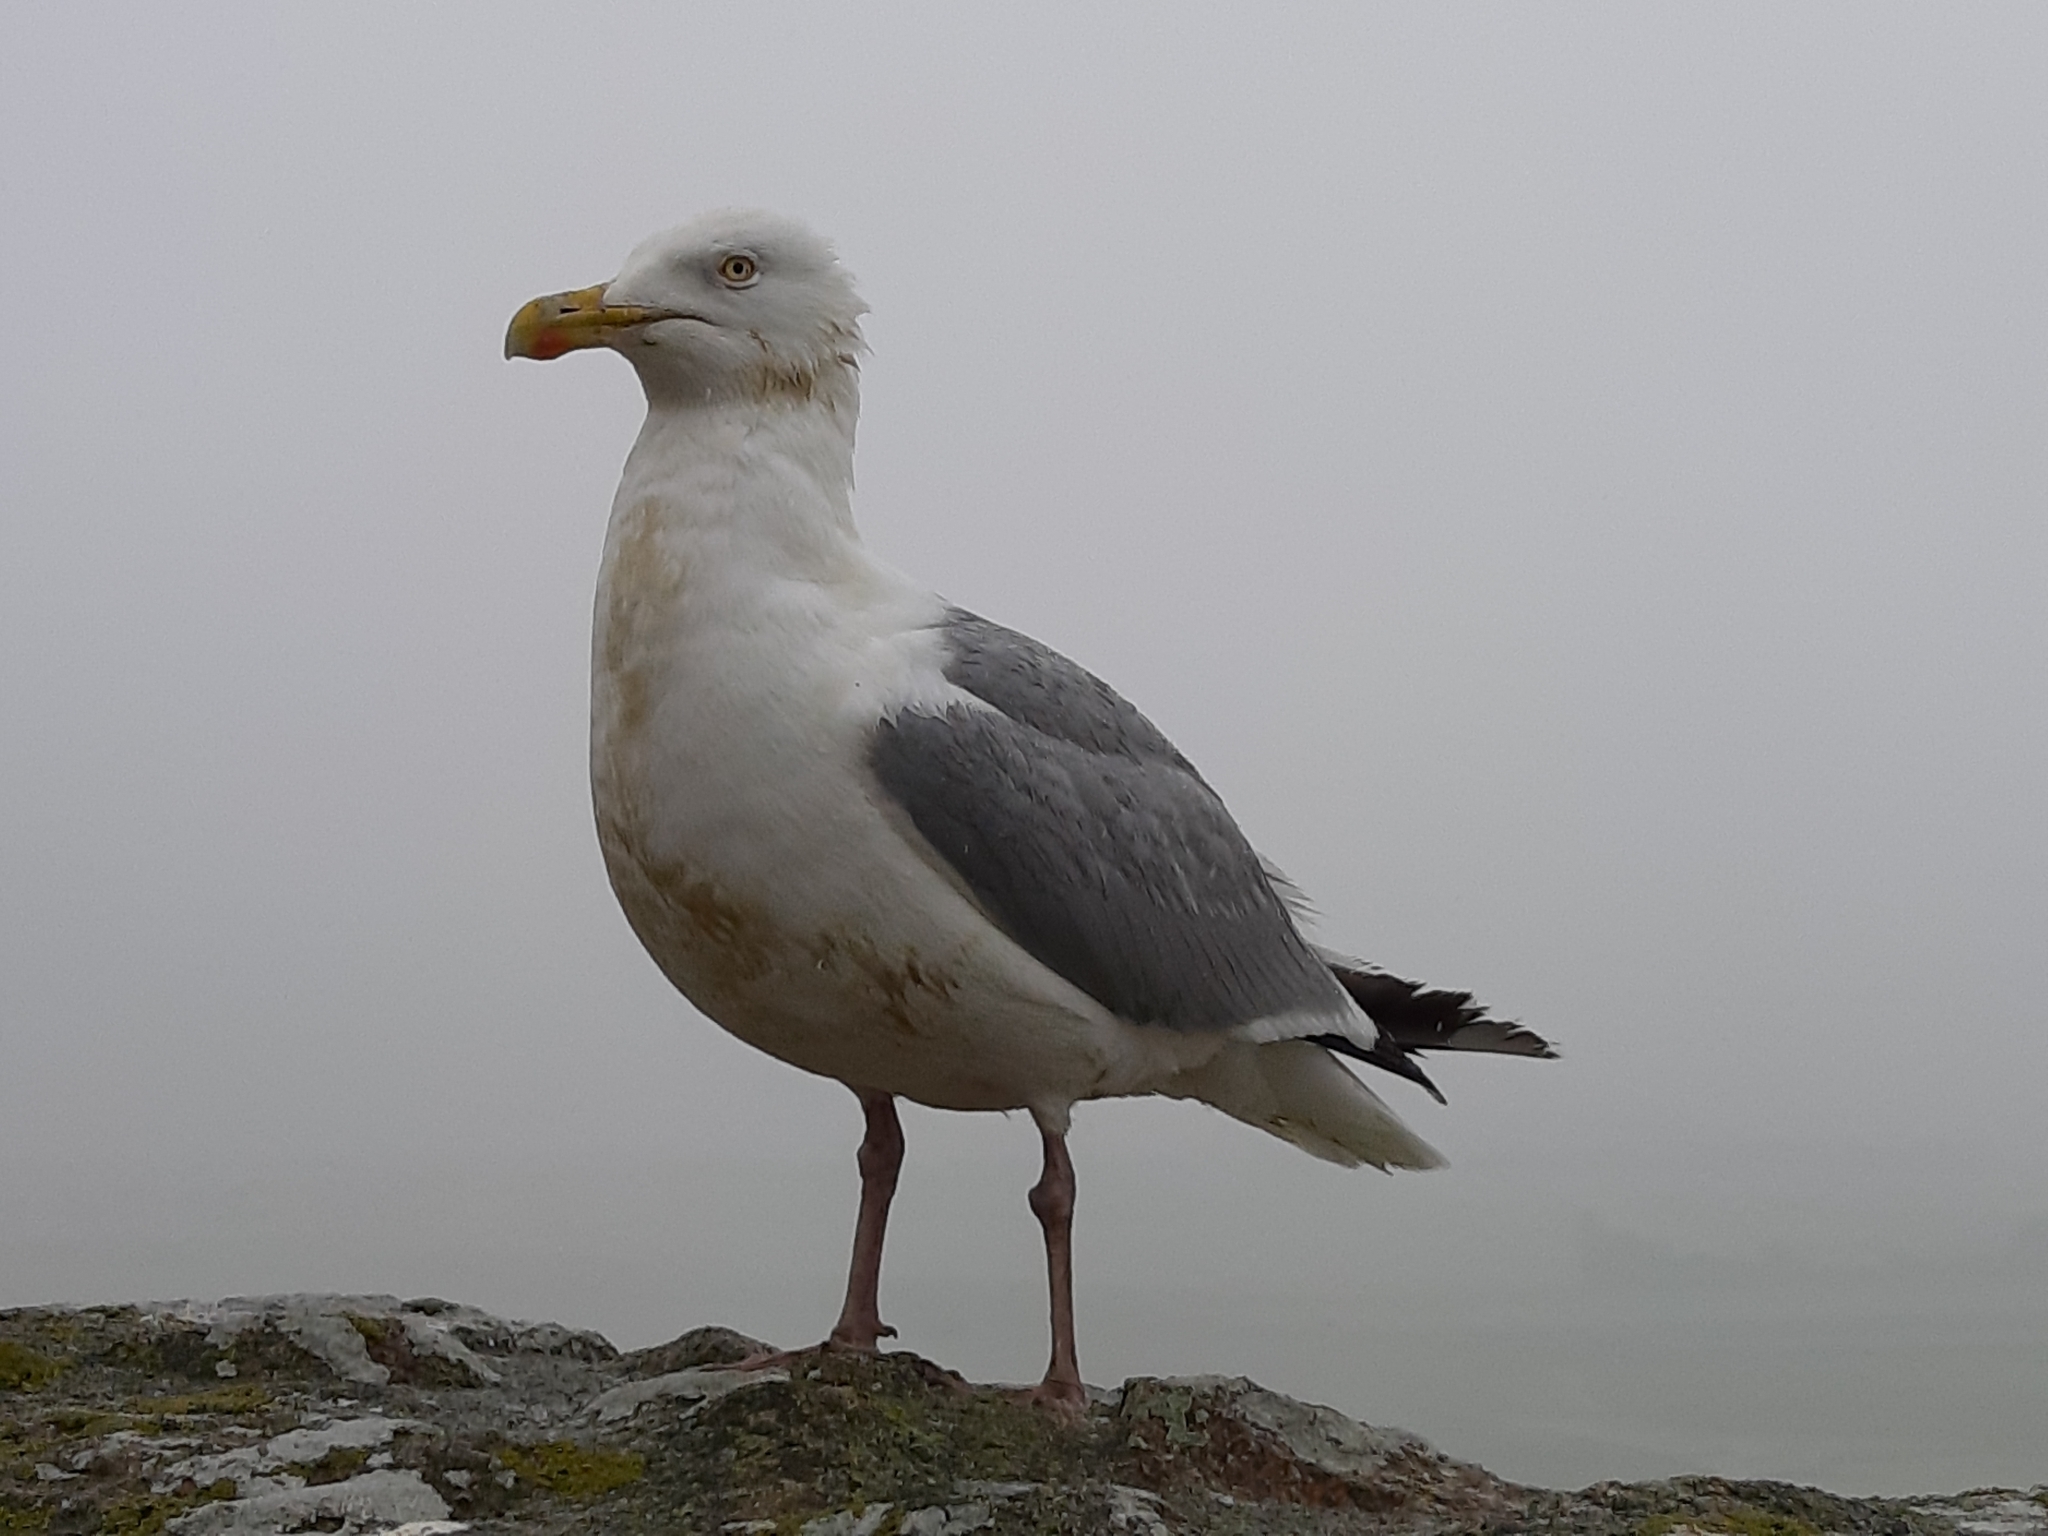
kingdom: Animalia
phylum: Chordata
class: Aves
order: Charadriiformes
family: Laridae
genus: Larus
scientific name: Larus argentatus
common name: Herring gull
